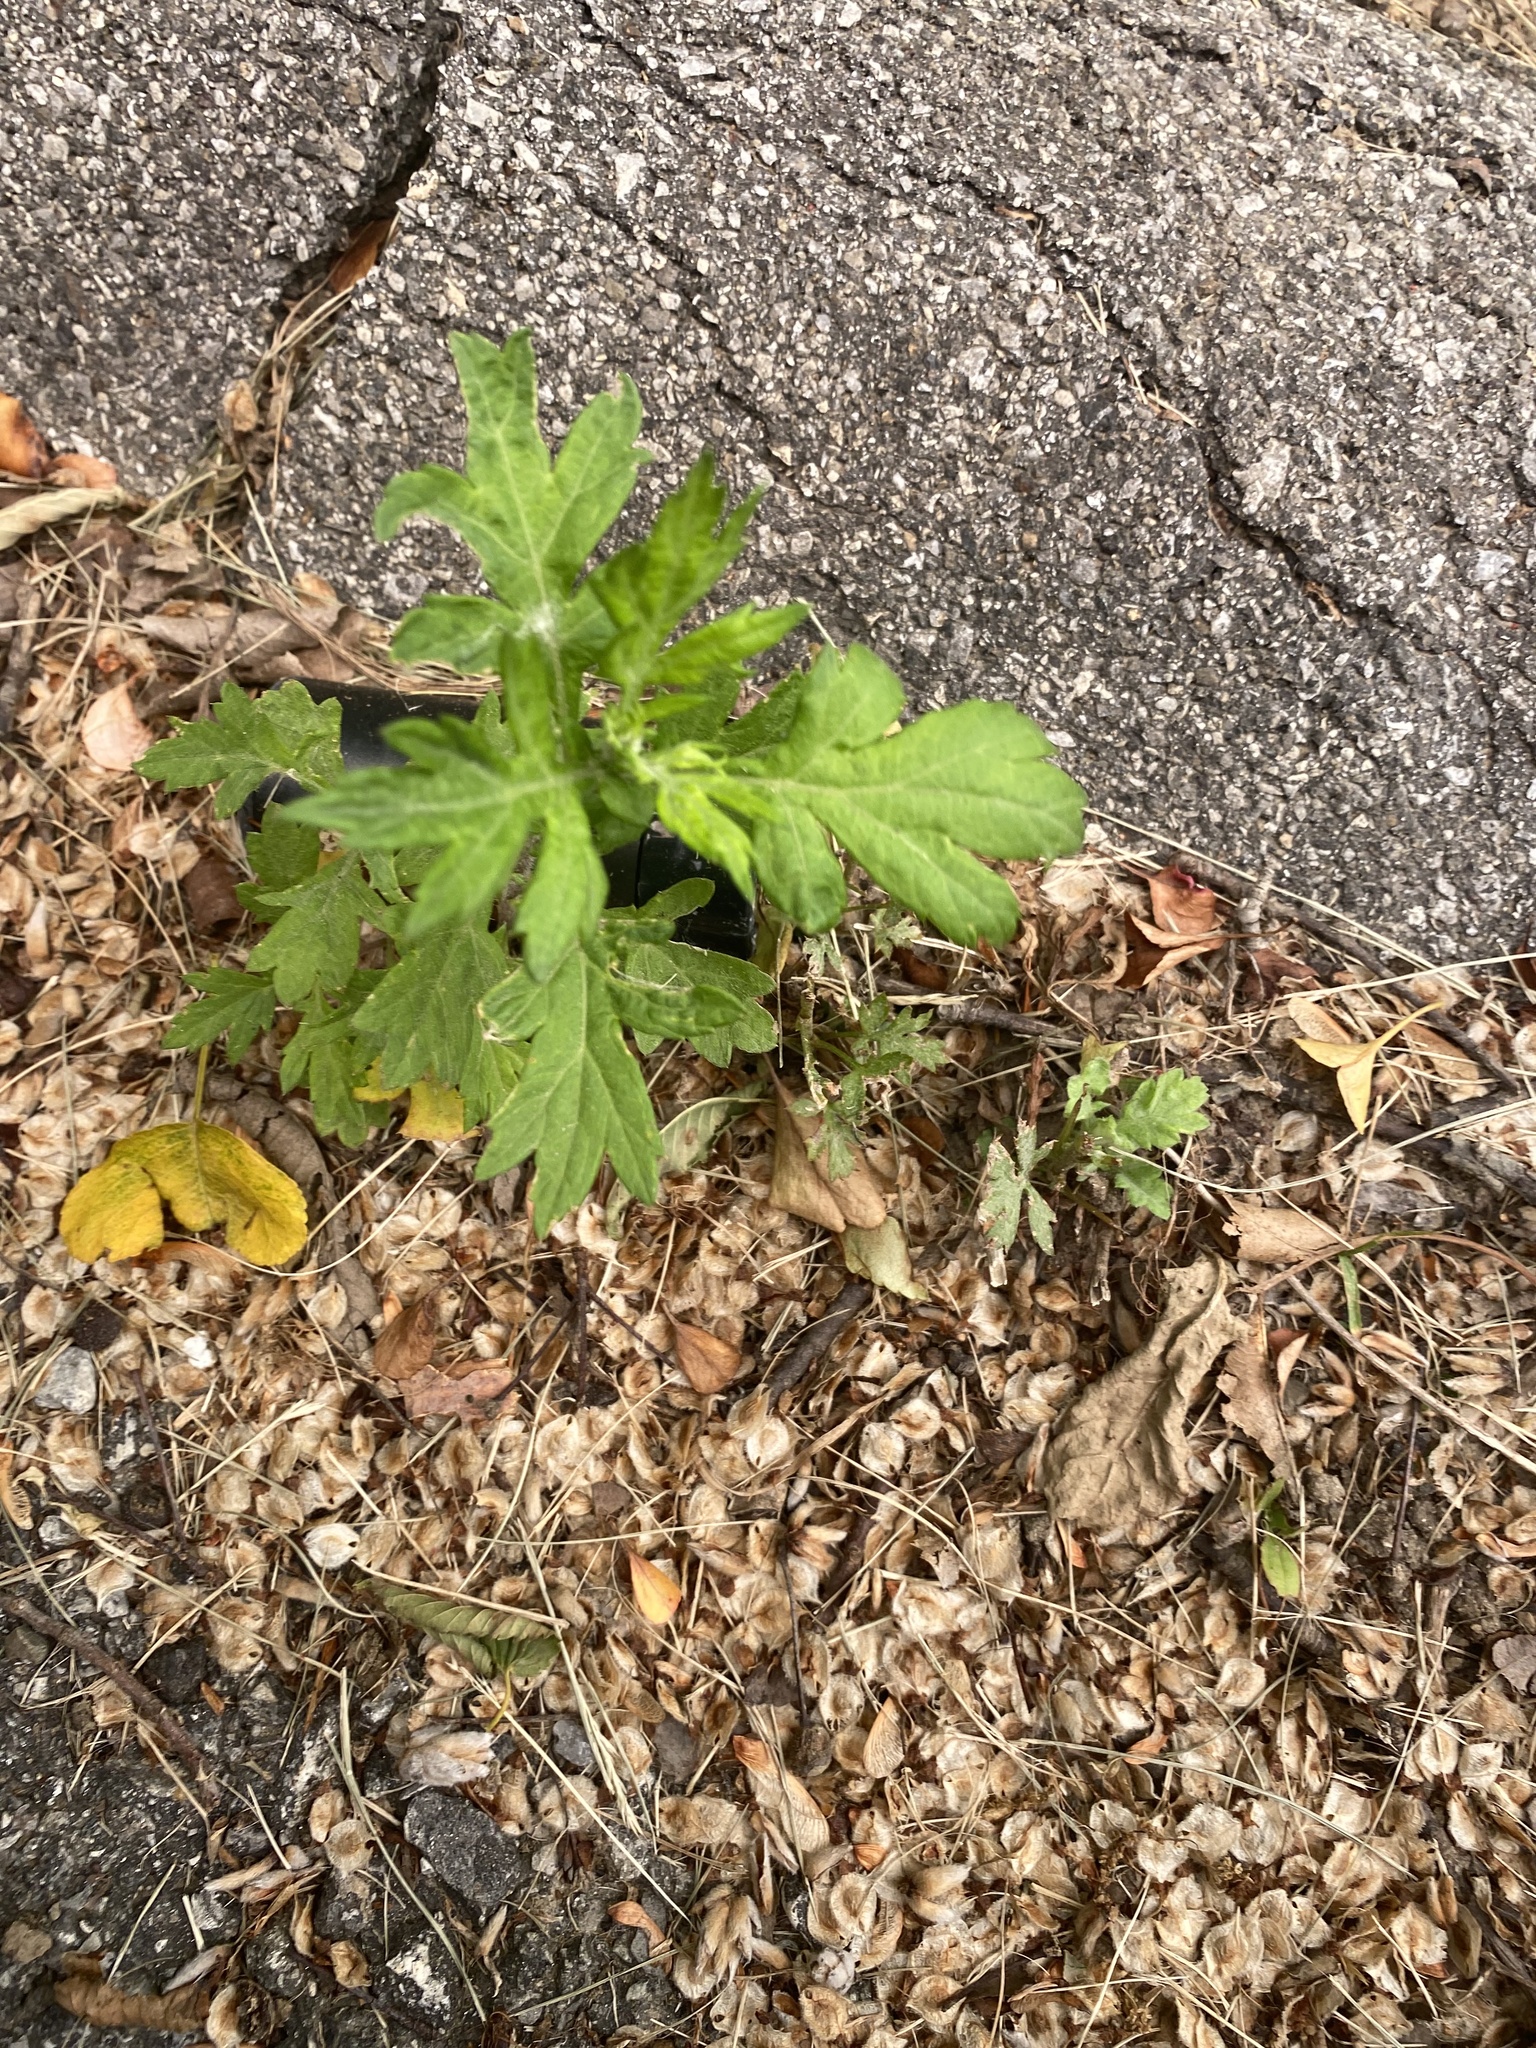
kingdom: Plantae
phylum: Tracheophyta
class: Magnoliopsida
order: Asterales
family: Asteraceae
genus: Artemisia
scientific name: Artemisia vulgaris
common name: Mugwort
